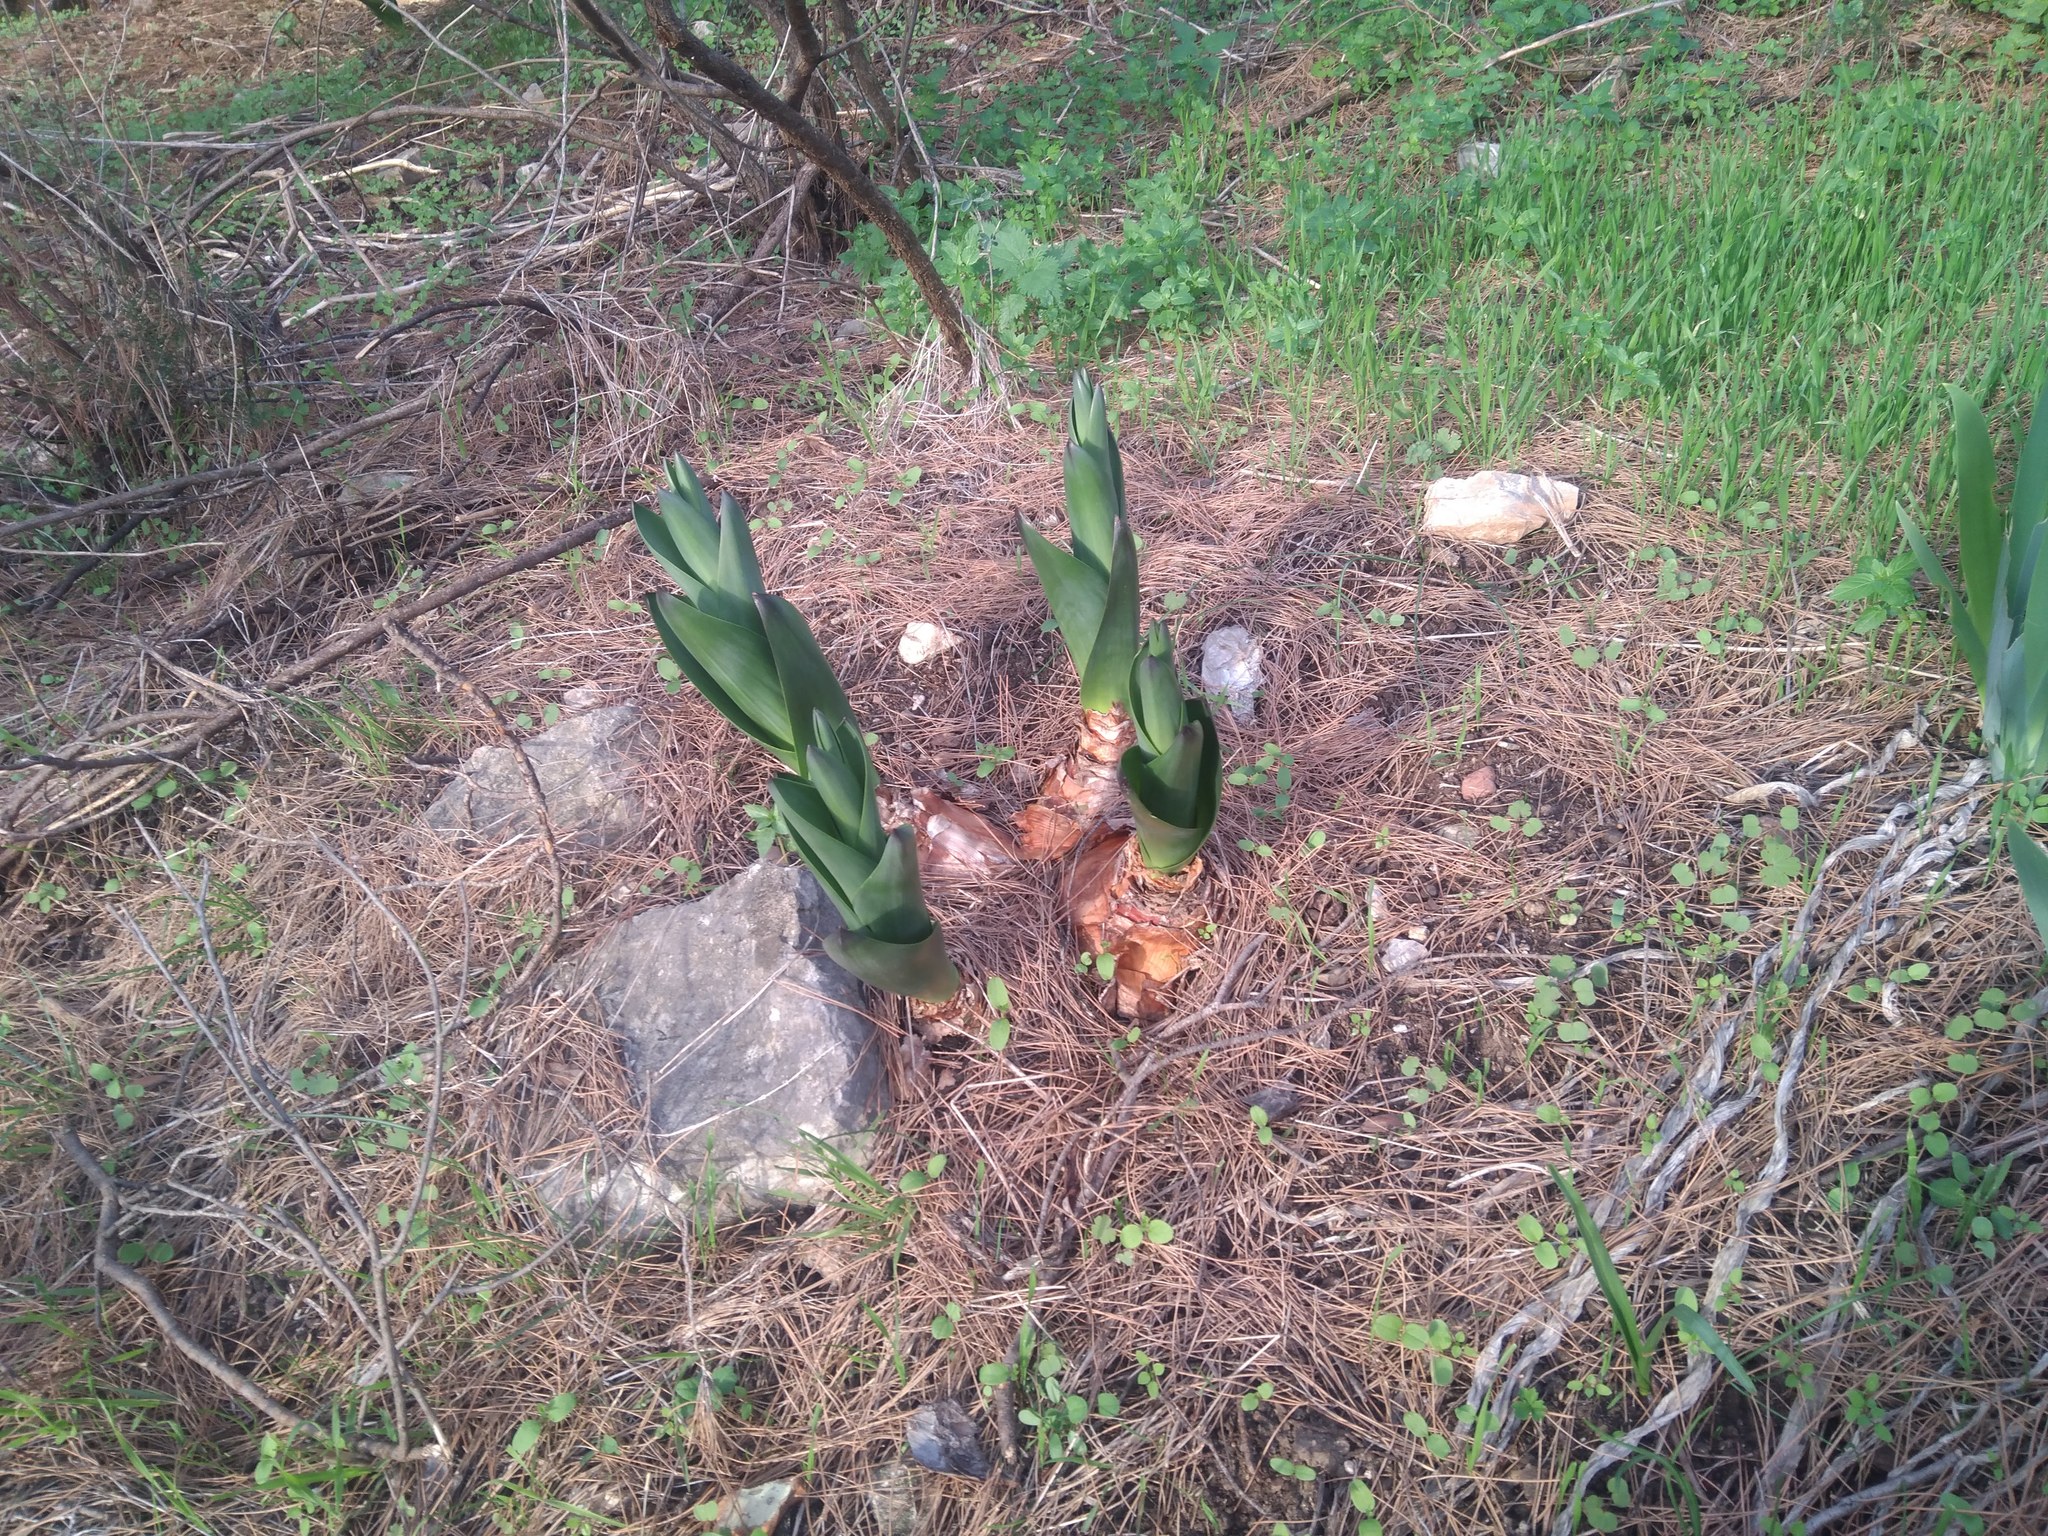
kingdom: Plantae
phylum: Tracheophyta
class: Liliopsida
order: Asparagales
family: Asparagaceae
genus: Drimia
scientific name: Drimia numidica
